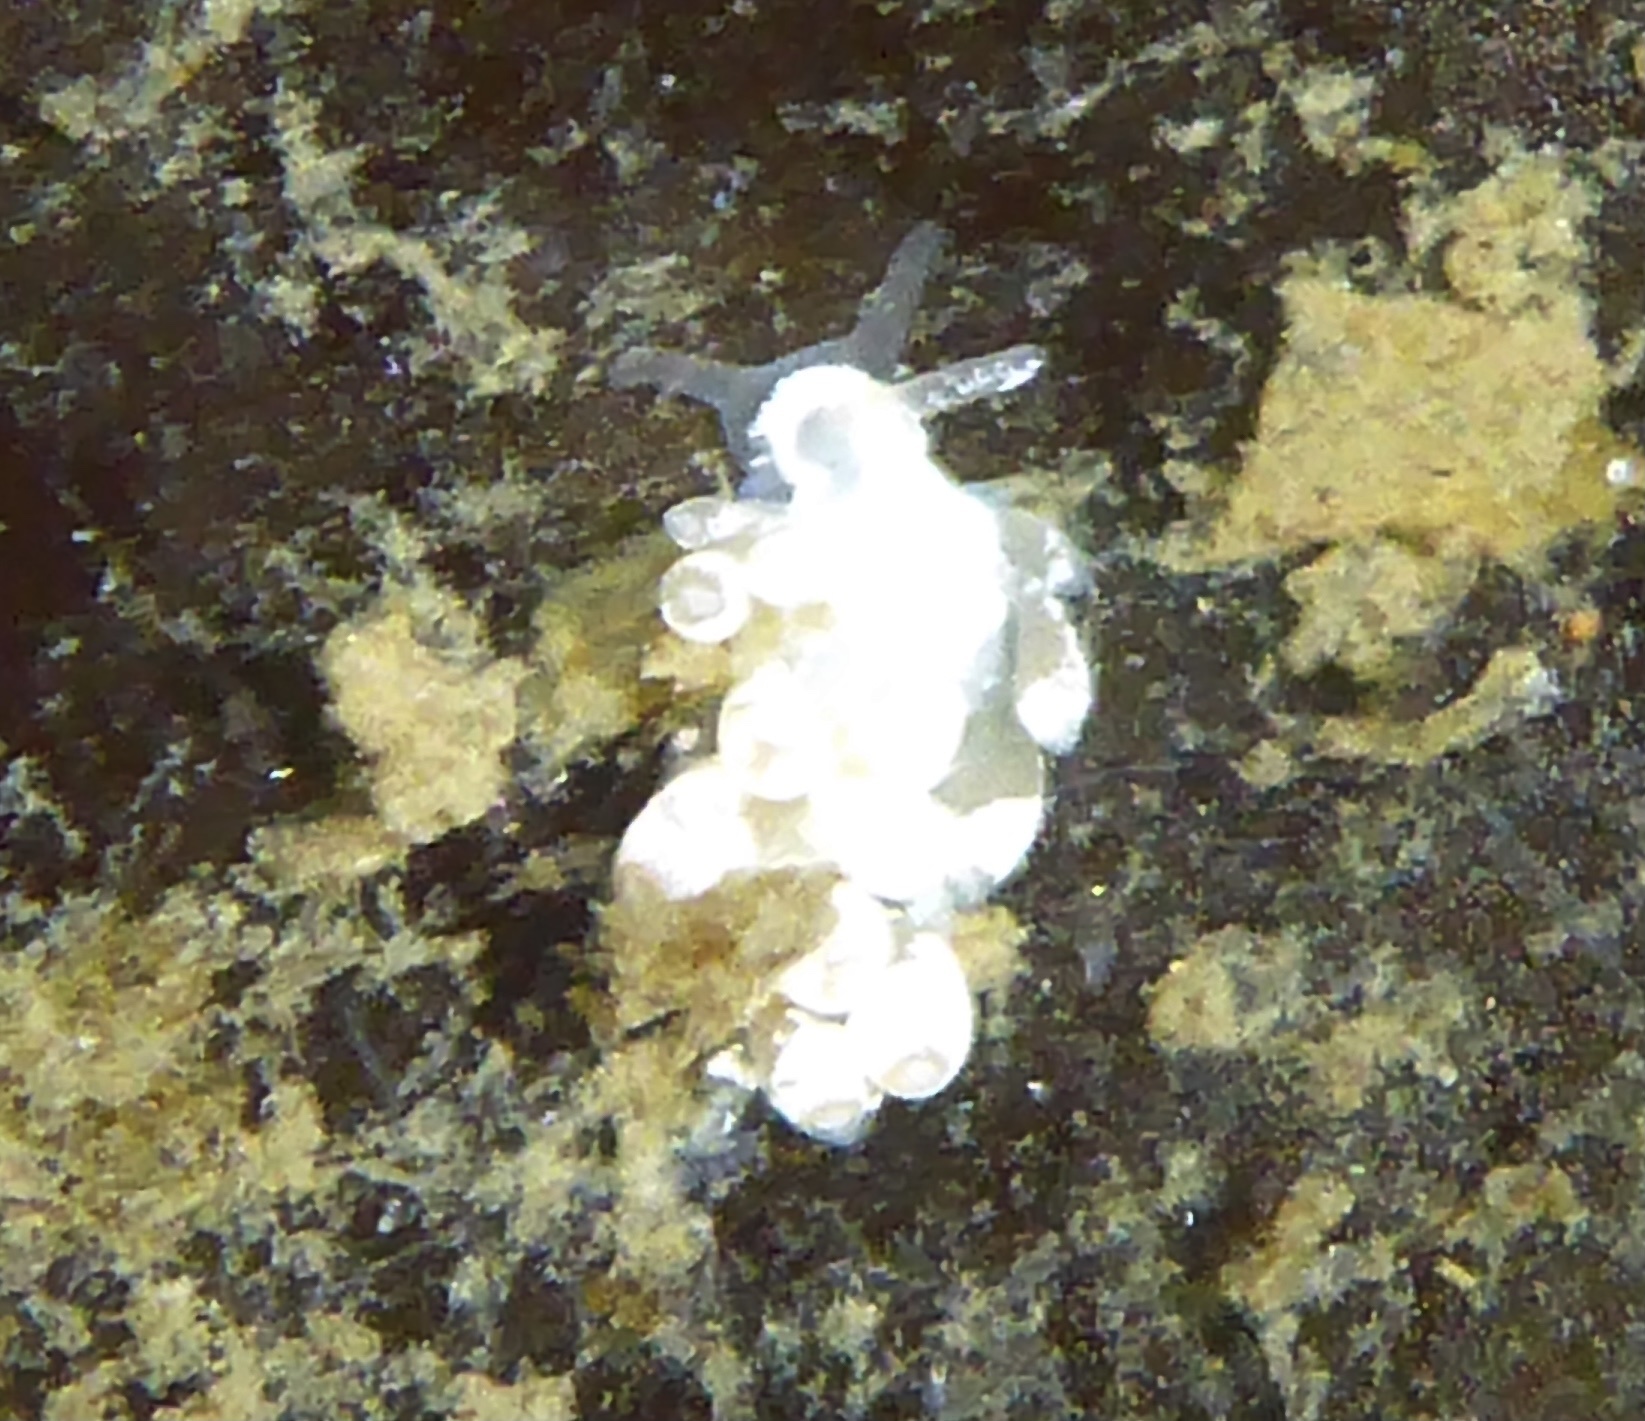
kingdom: Animalia
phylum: Mollusca
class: Gastropoda
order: Nudibranchia
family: Trinchesiidae
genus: Trinchesia
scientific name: Trinchesia albocrusta
